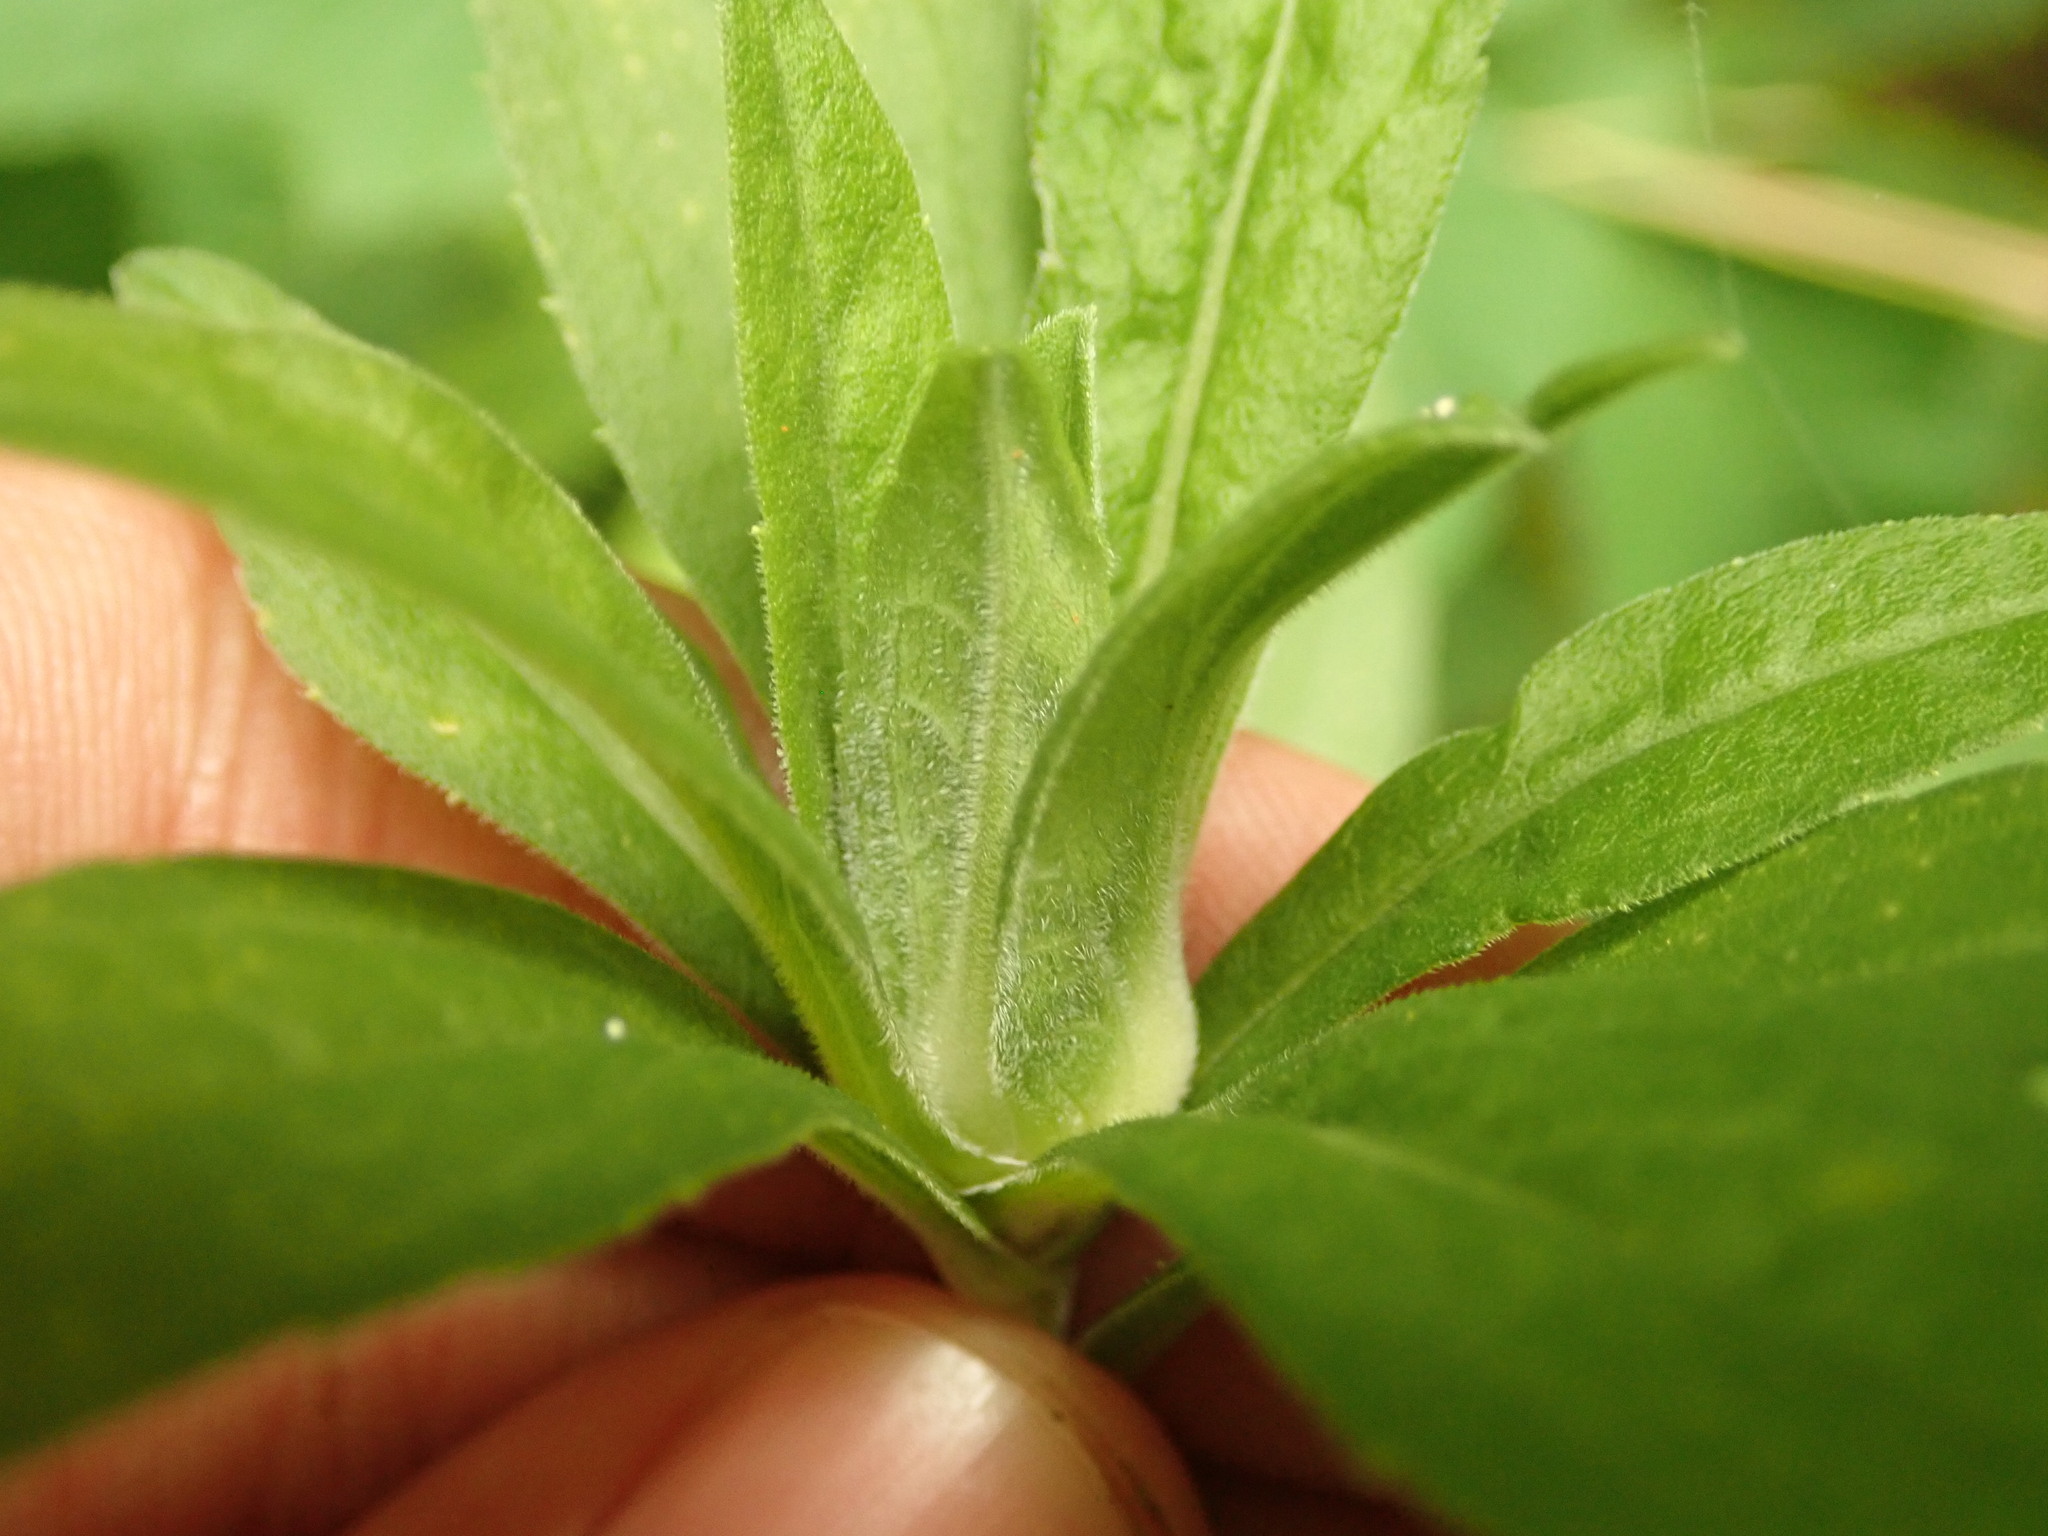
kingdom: Animalia
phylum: Arthropoda
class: Insecta
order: Diptera
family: Cecidomyiidae
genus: Dasineura
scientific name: Dasineura folliculi
